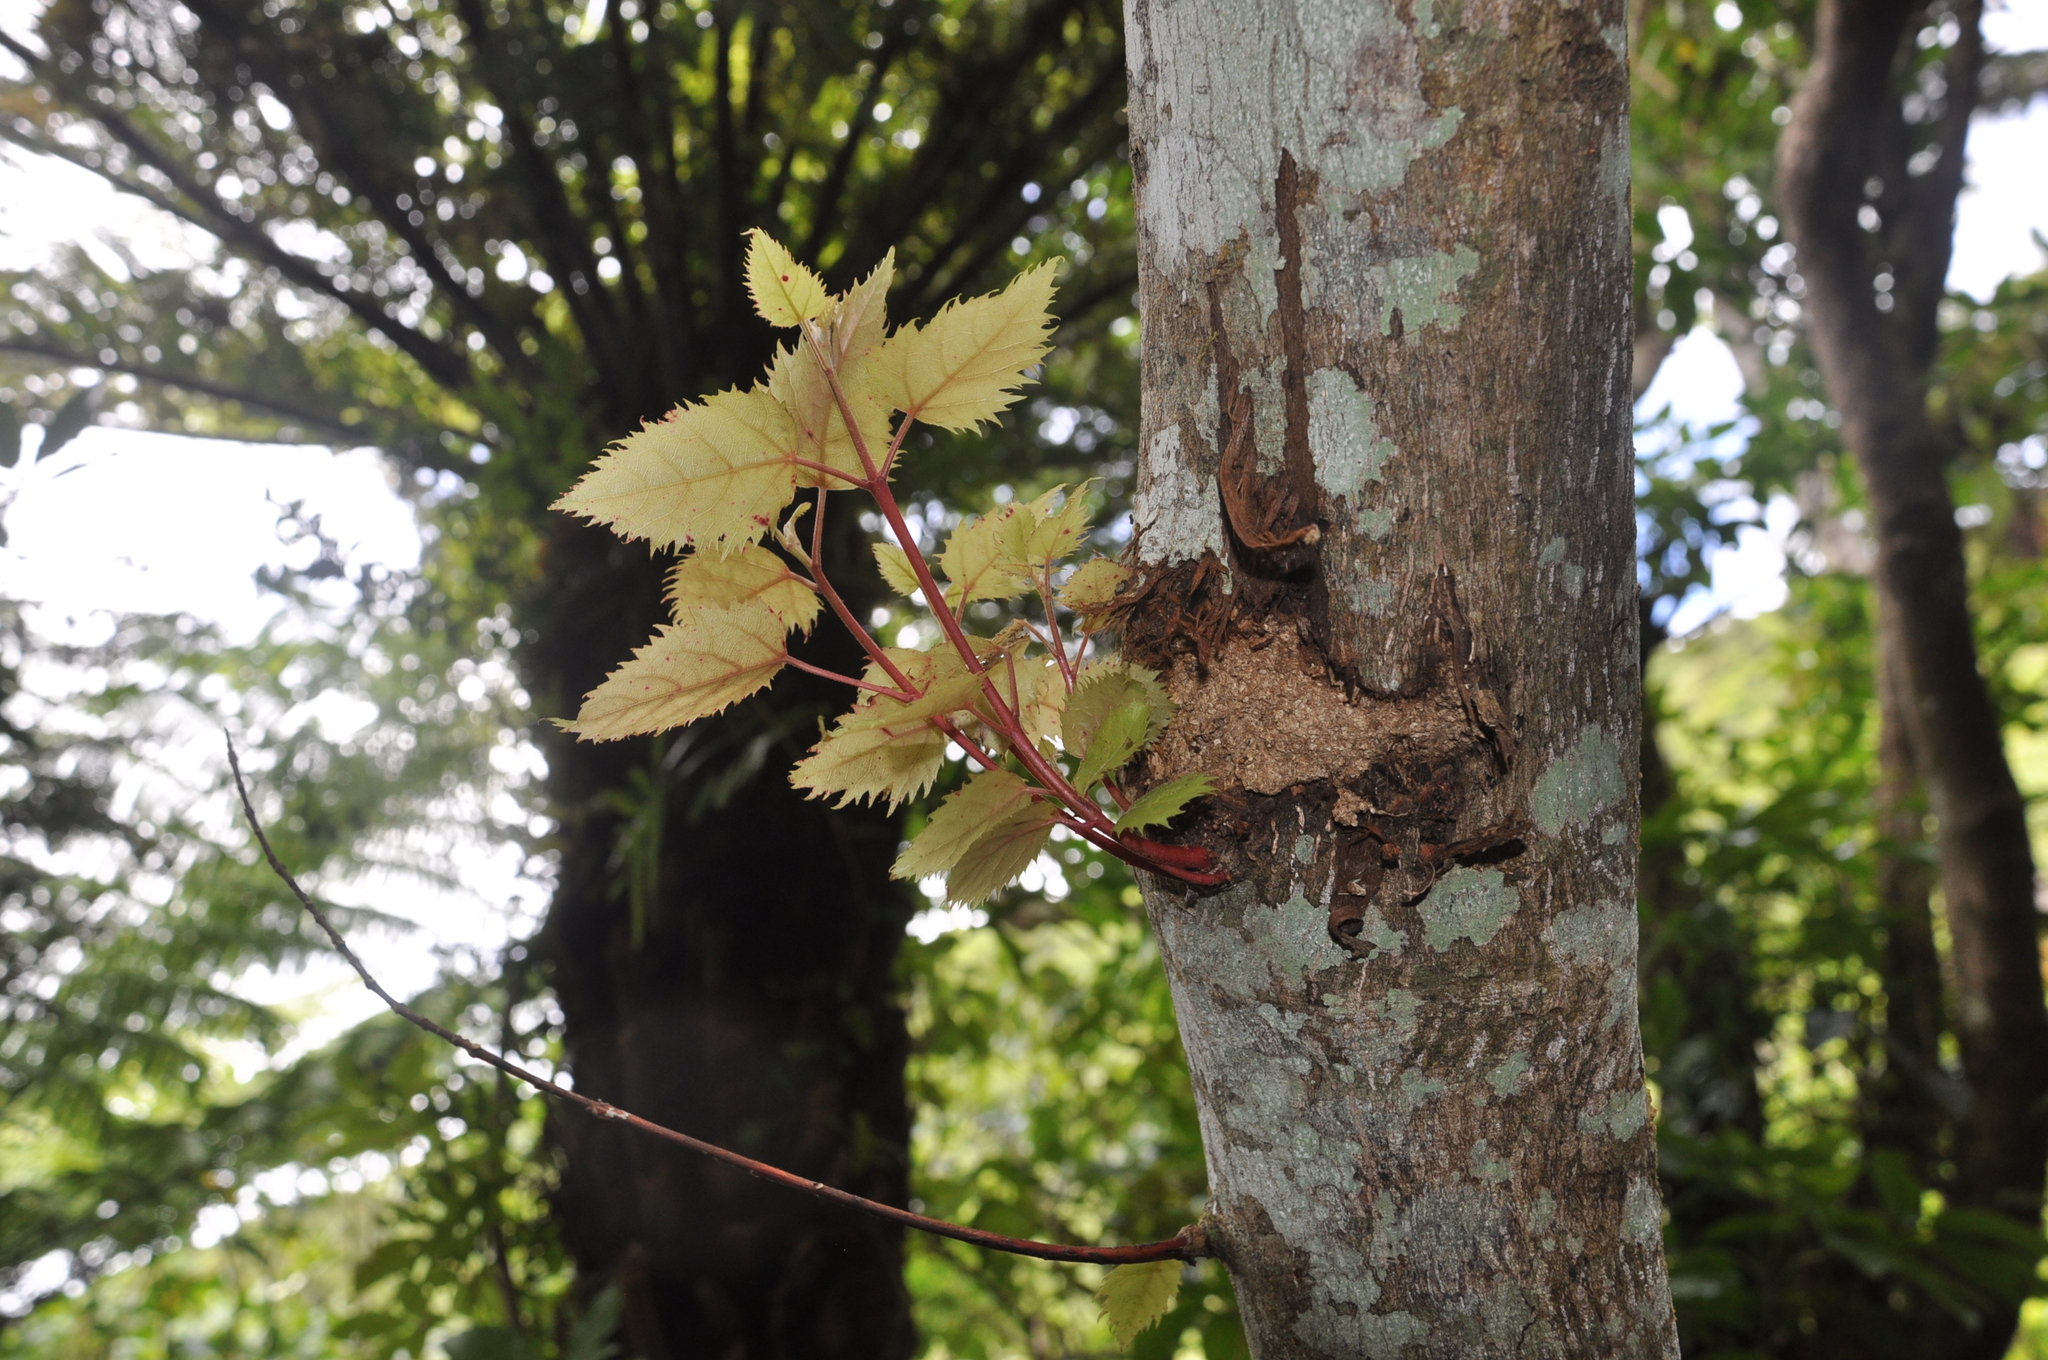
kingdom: Animalia
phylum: Chordata
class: Aves
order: Psittaciformes
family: Psittacidae
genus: Nestor
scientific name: Nestor meridionalis
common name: New zealand kaka
